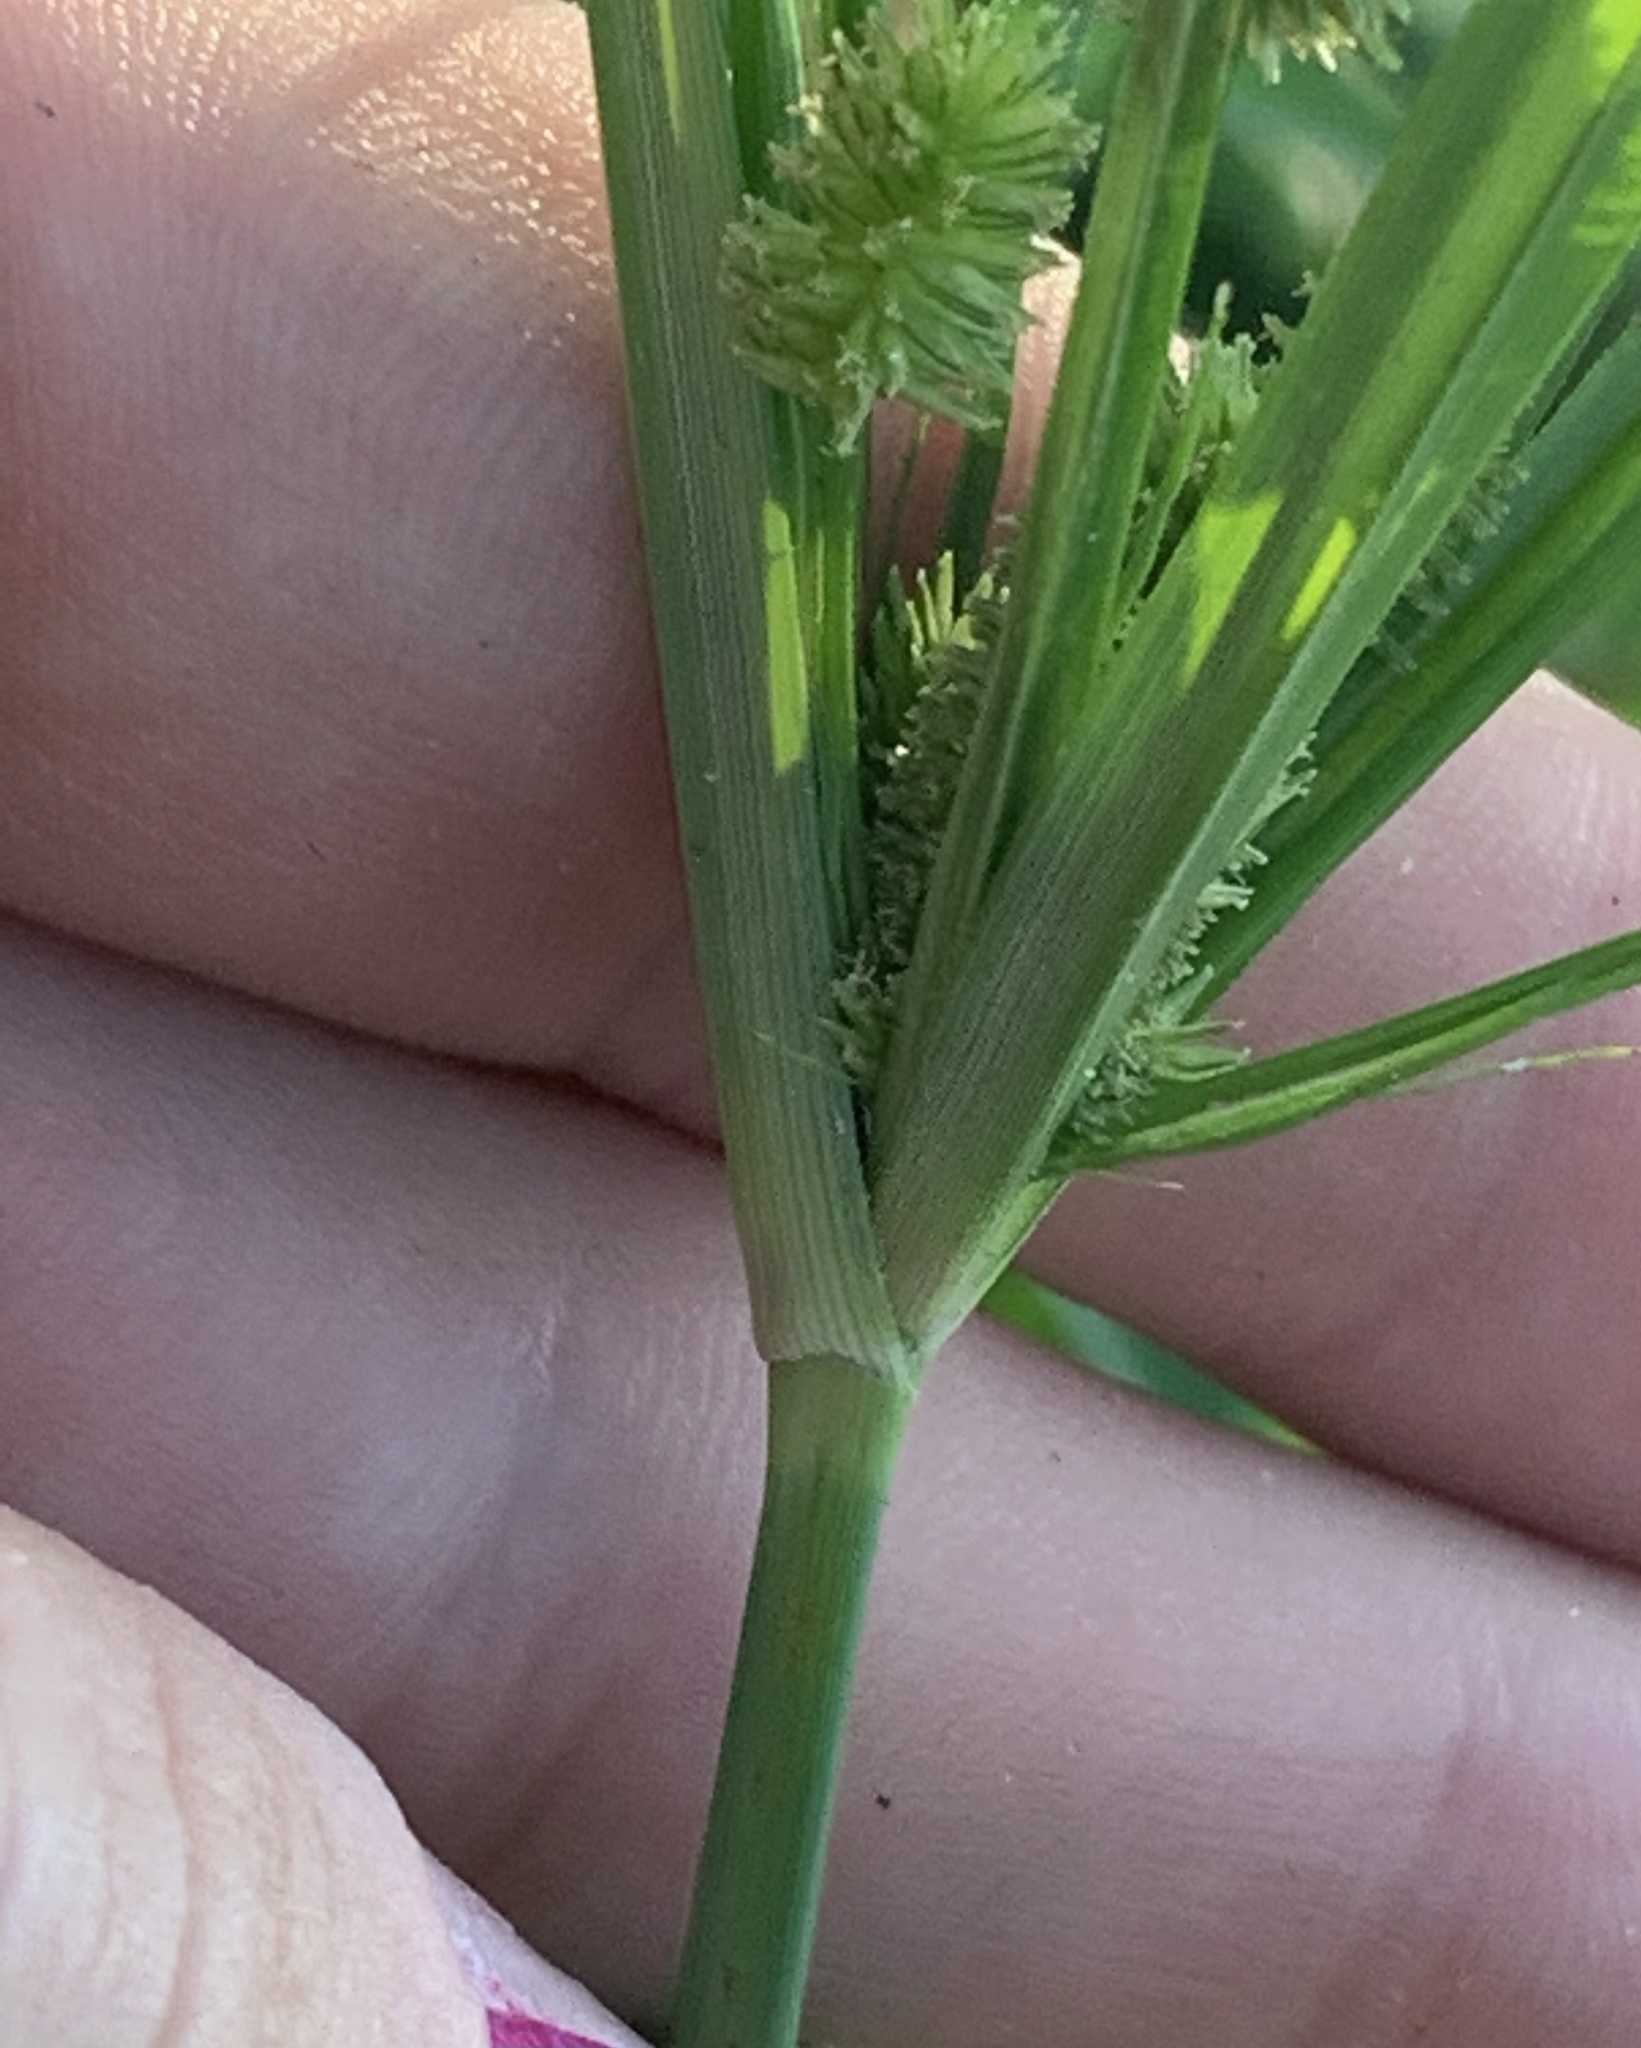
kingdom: Plantae
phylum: Tracheophyta
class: Liliopsida
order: Poales
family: Cyperaceae
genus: Cyperus
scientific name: Cyperus ovatus
